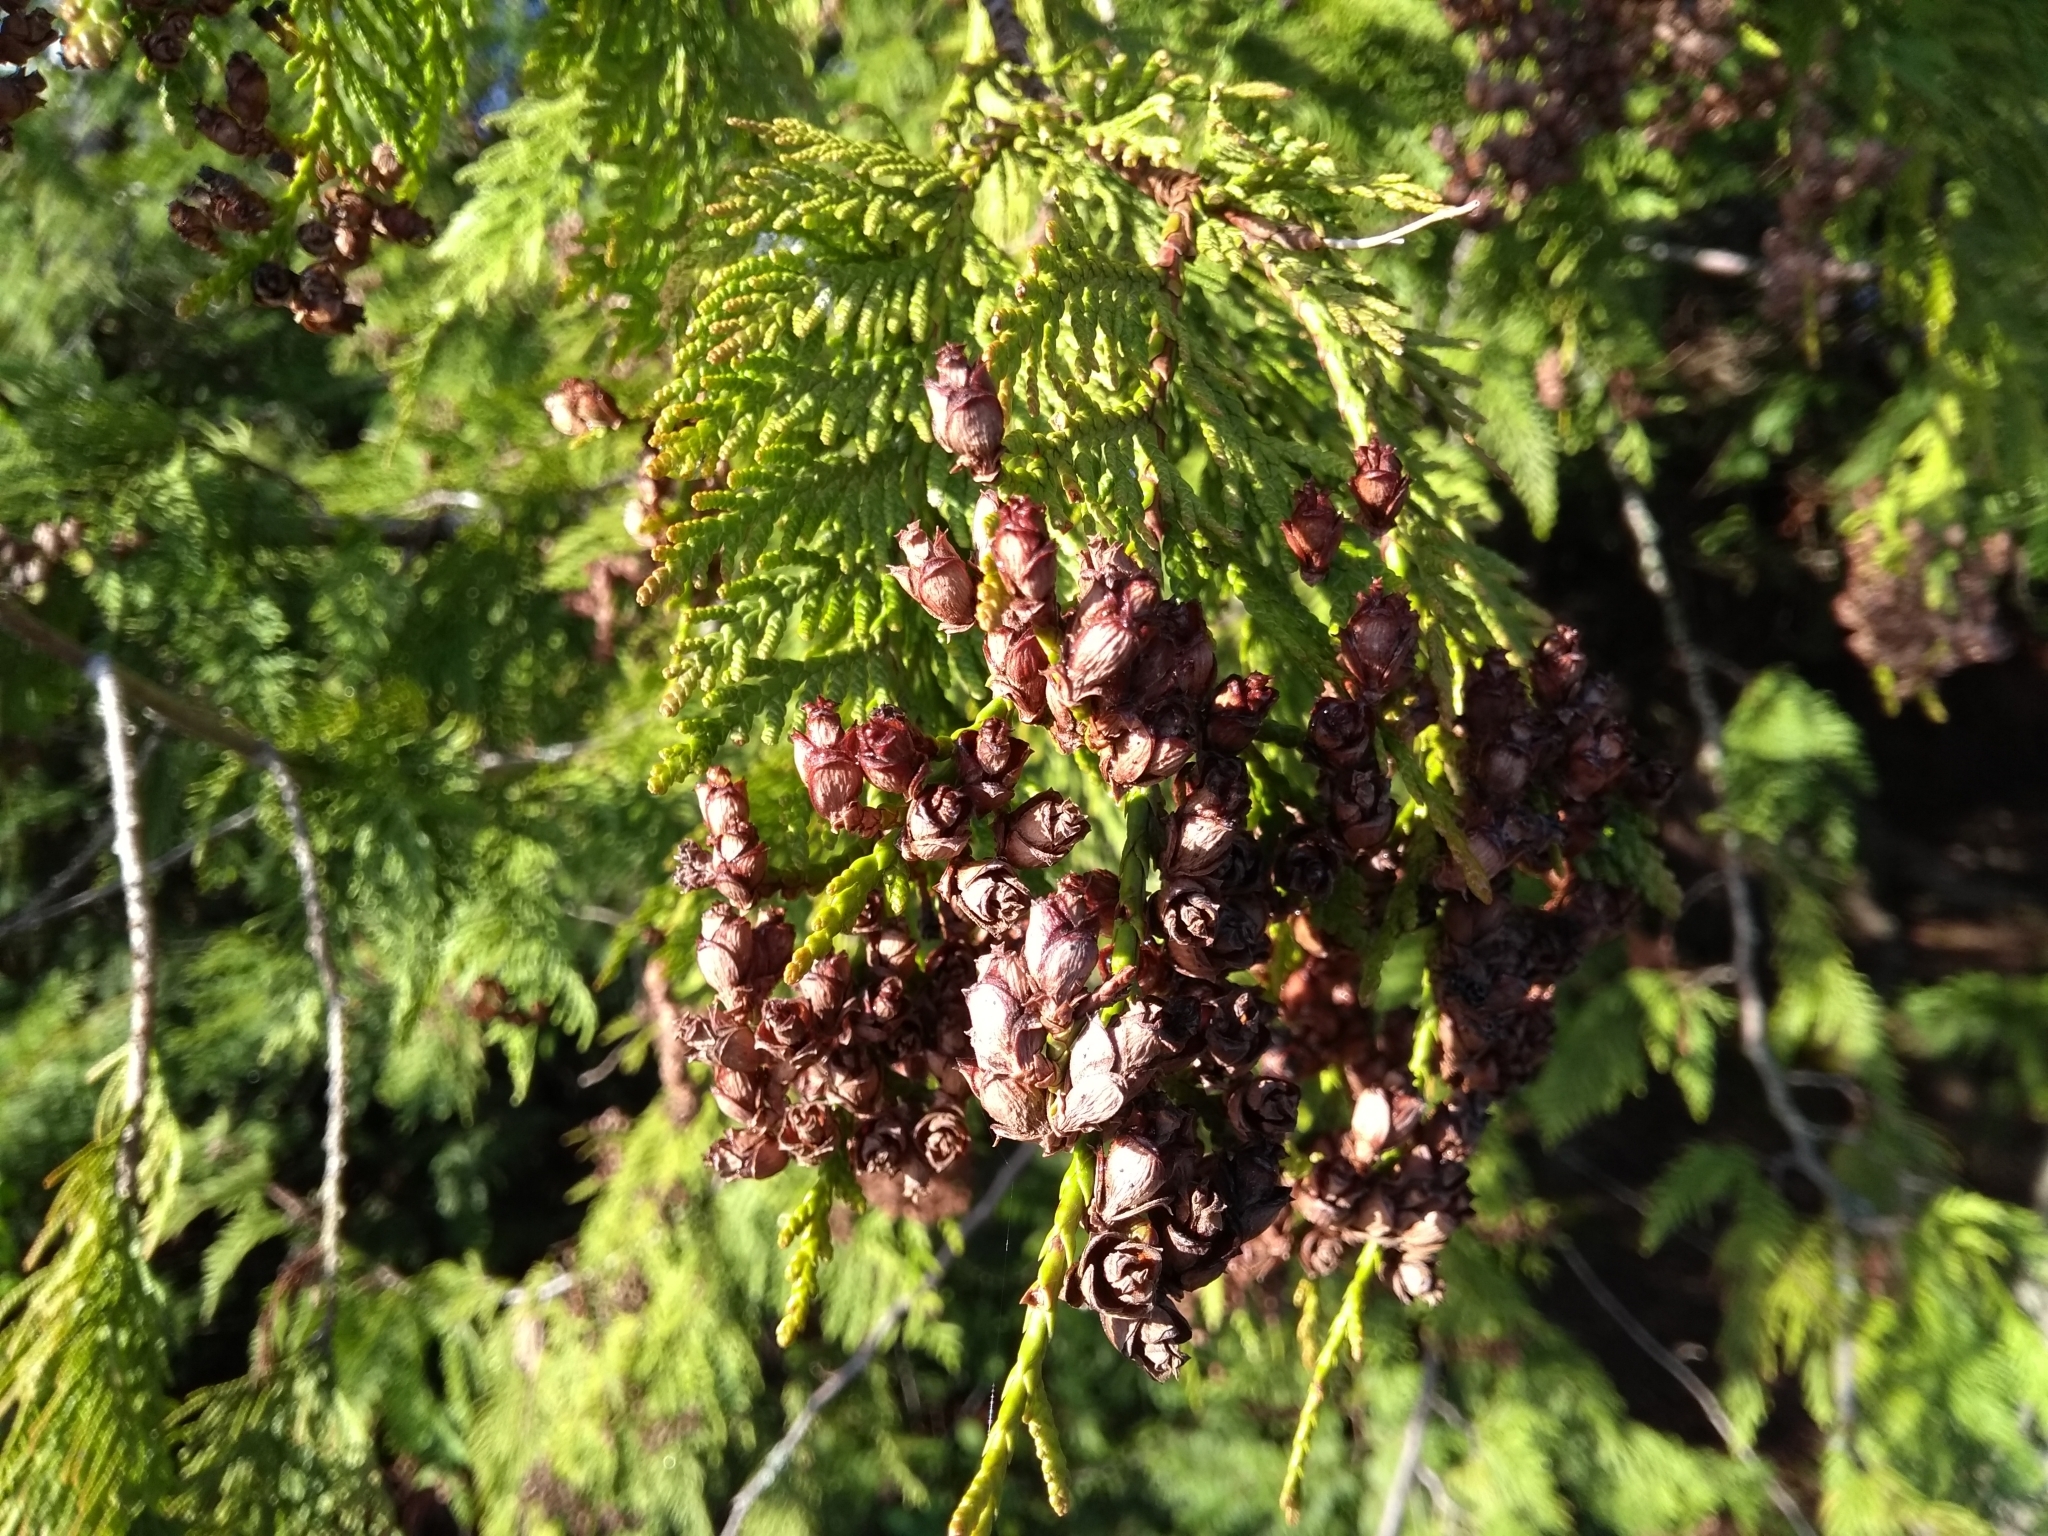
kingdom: Plantae
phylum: Tracheophyta
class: Pinopsida
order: Pinales
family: Cupressaceae
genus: Thuja
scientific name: Thuja plicata
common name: Western red-cedar
